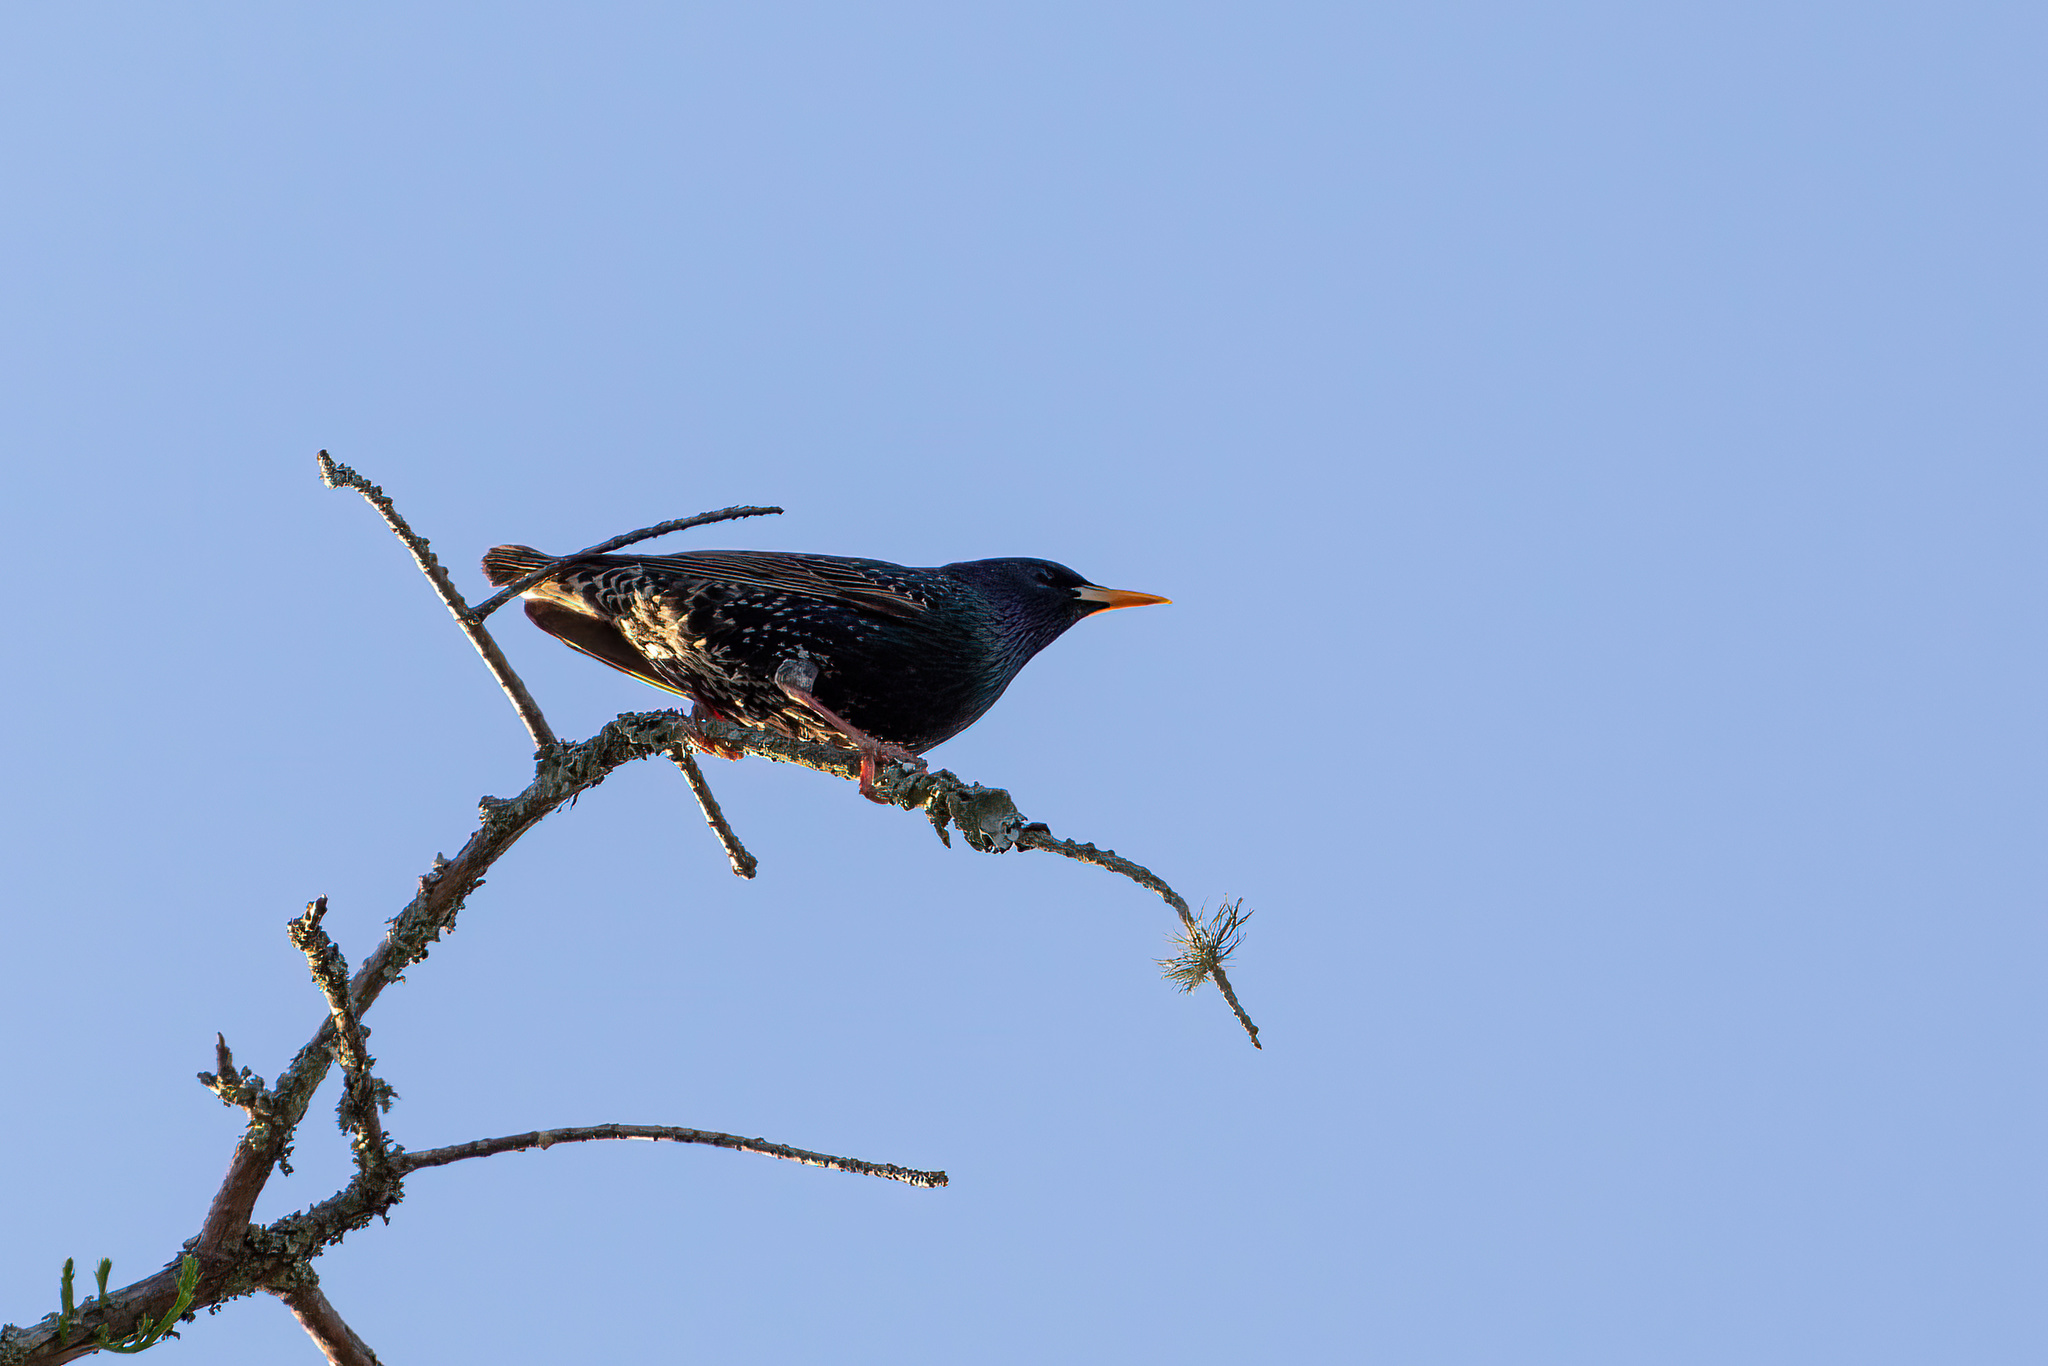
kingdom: Animalia
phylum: Chordata
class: Aves
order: Passeriformes
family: Sturnidae
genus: Sturnus
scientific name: Sturnus vulgaris
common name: Common starling
